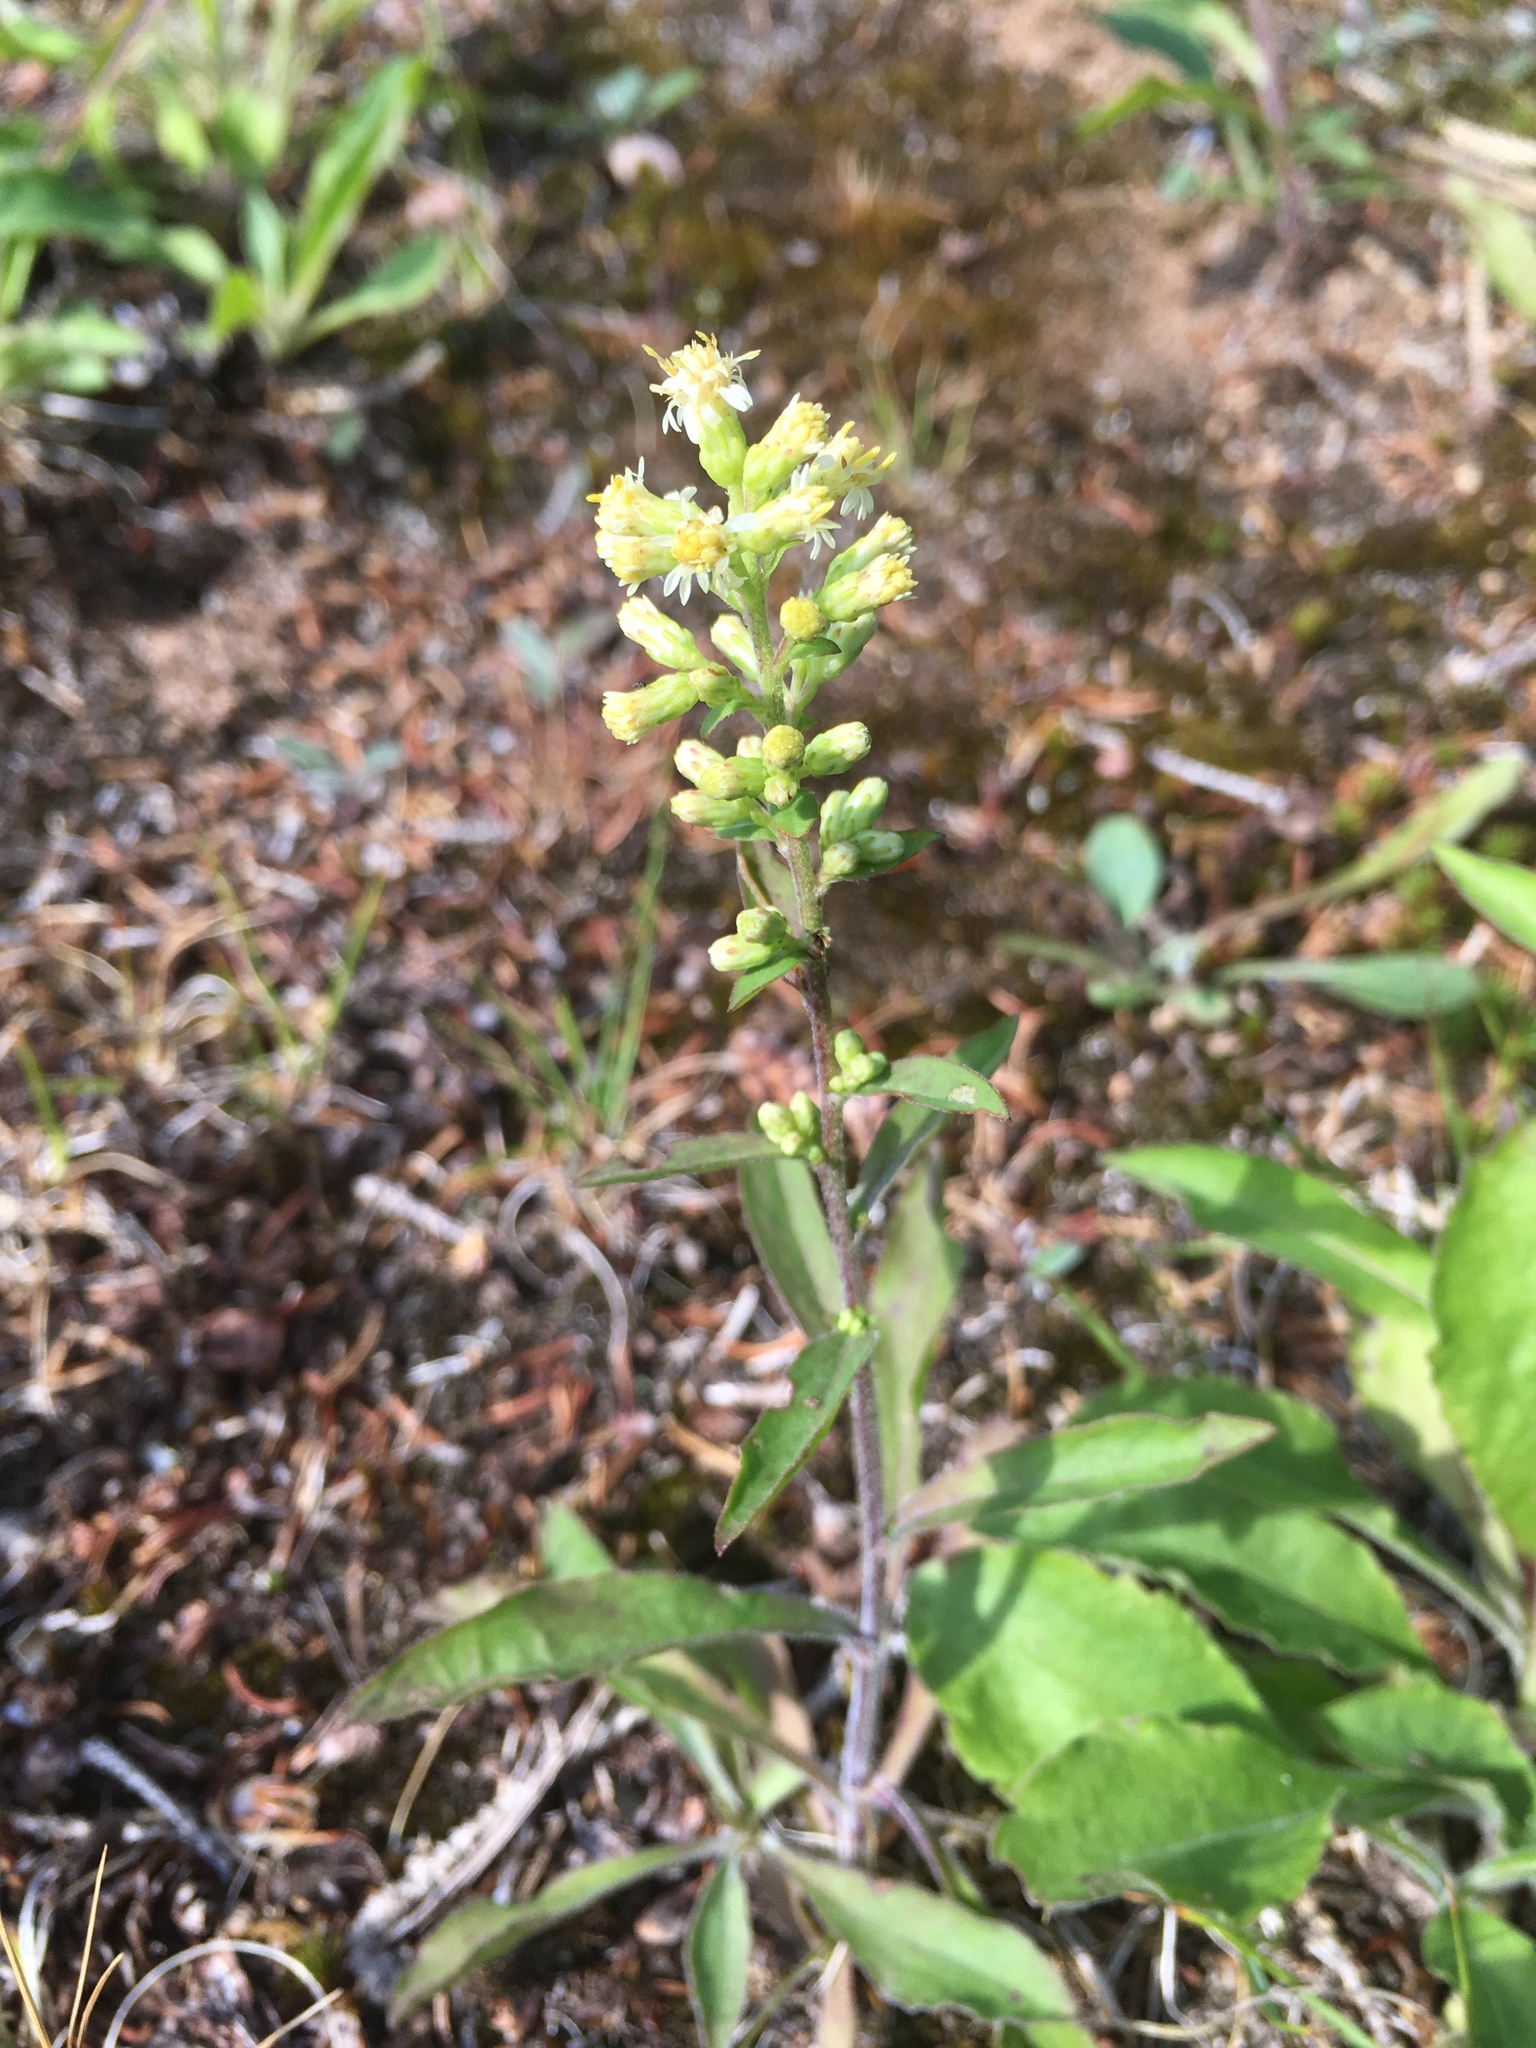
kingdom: Plantae
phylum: Tracheophyta
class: Magnoliopsida
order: Asterales
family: Asteraceae
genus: Solidago
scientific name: Solidago bicolor
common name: Silverrod
